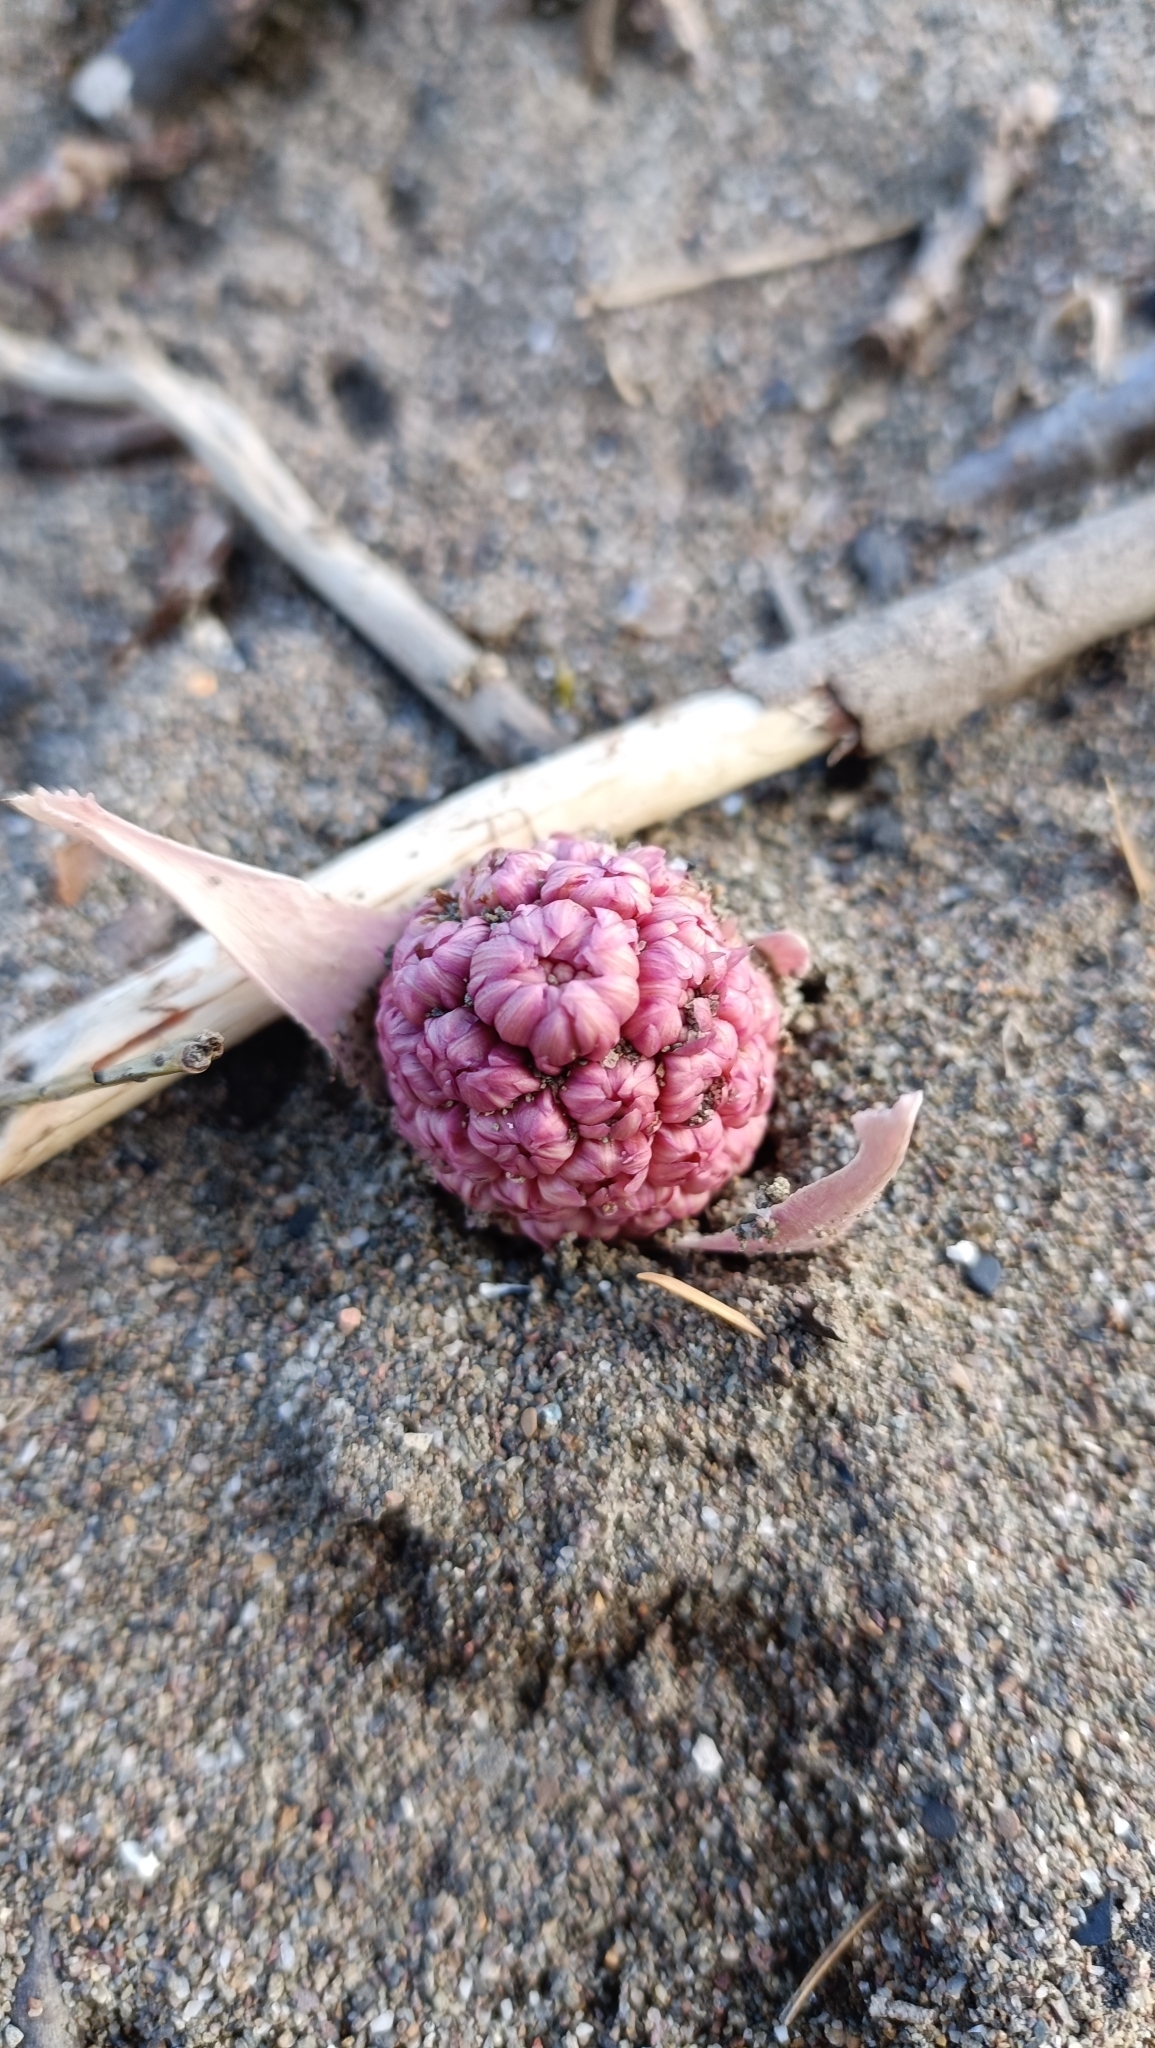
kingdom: Plantae
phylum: Tracheophyta
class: Magnoliopsida
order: Asterales
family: Asteraceae
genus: Petasites
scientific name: Petasites hybridus
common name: Butterbur
